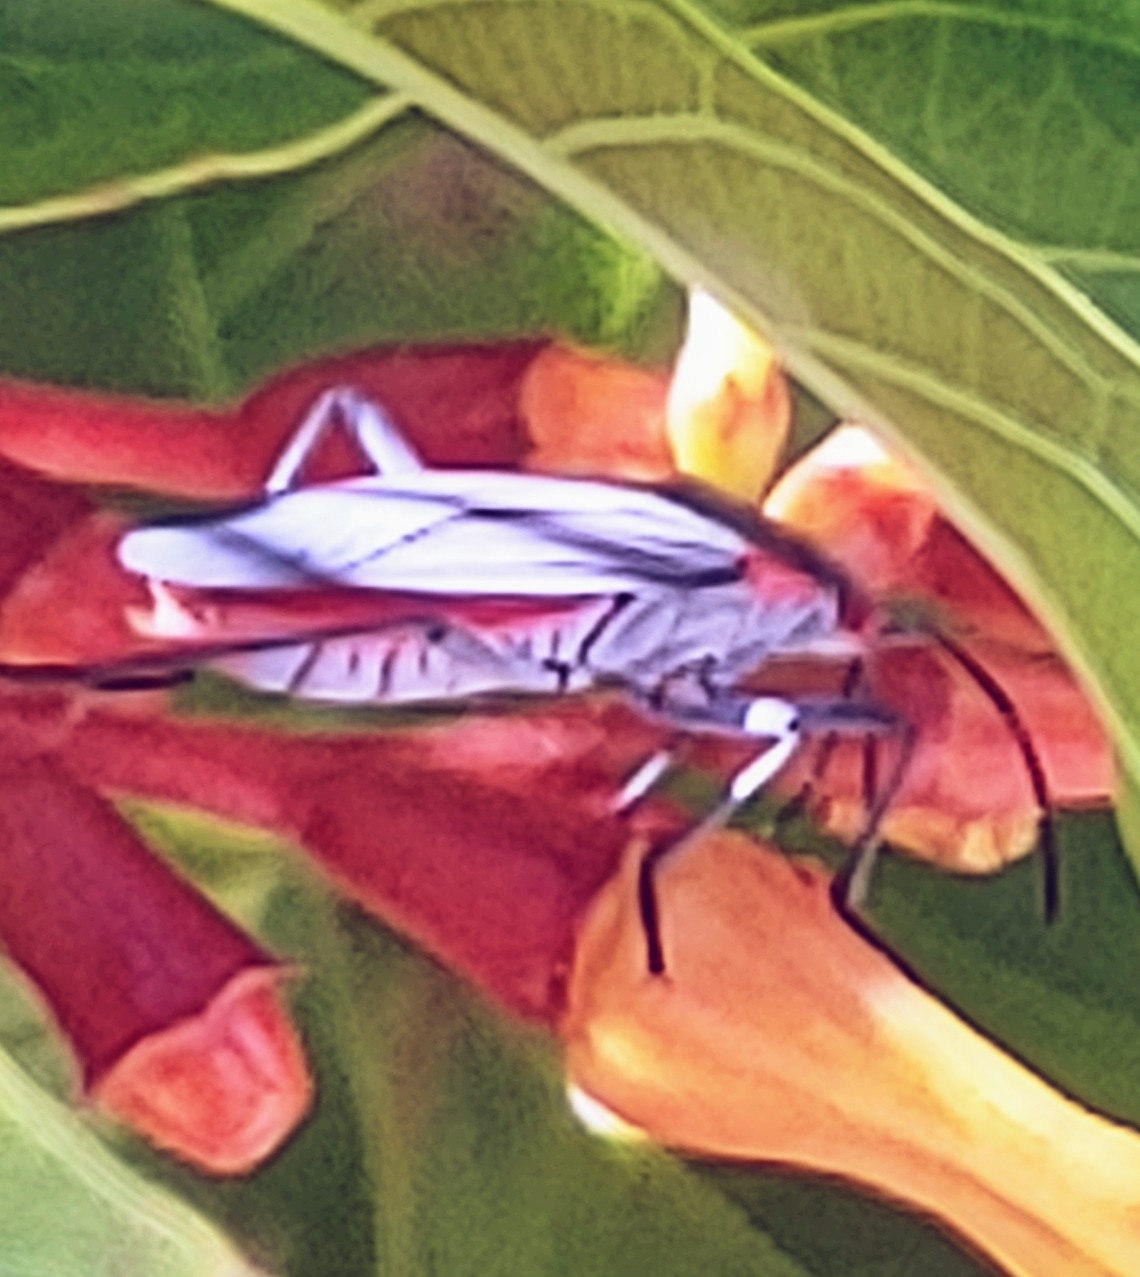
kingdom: Animalia
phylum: Arthropoda
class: Insecta
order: Hemiptera
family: Rhopalidae
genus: Jadera
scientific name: Jadera haematoloma
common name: Red-shouldered bug
